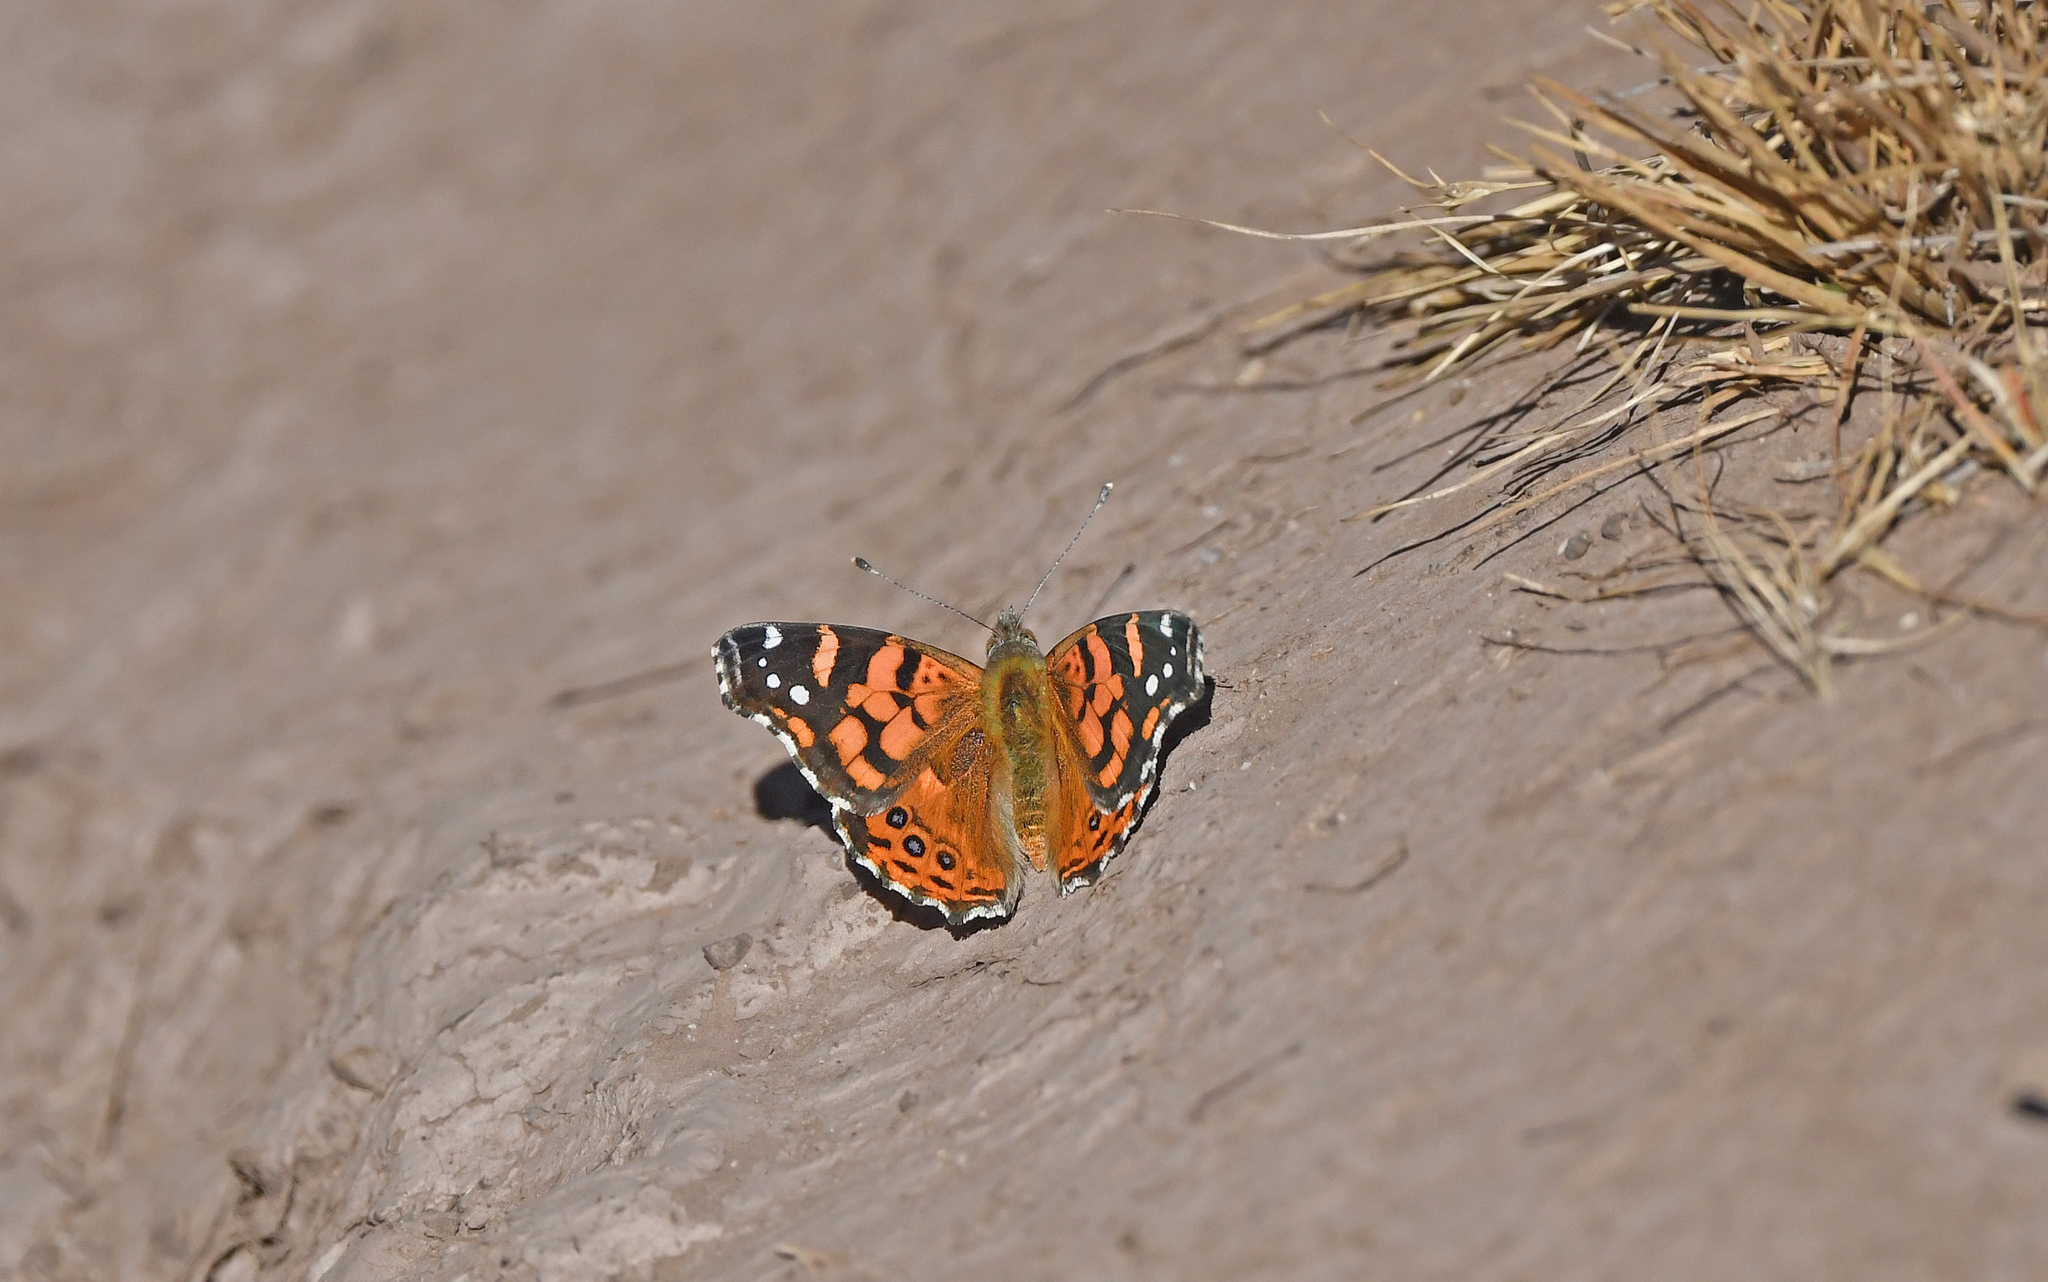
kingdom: Animalia
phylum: Arthropoda
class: Insecta
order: Lepidoptera
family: Nymphalidae
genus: Vanessa
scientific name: Vanessa carye
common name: Subtropical lady
